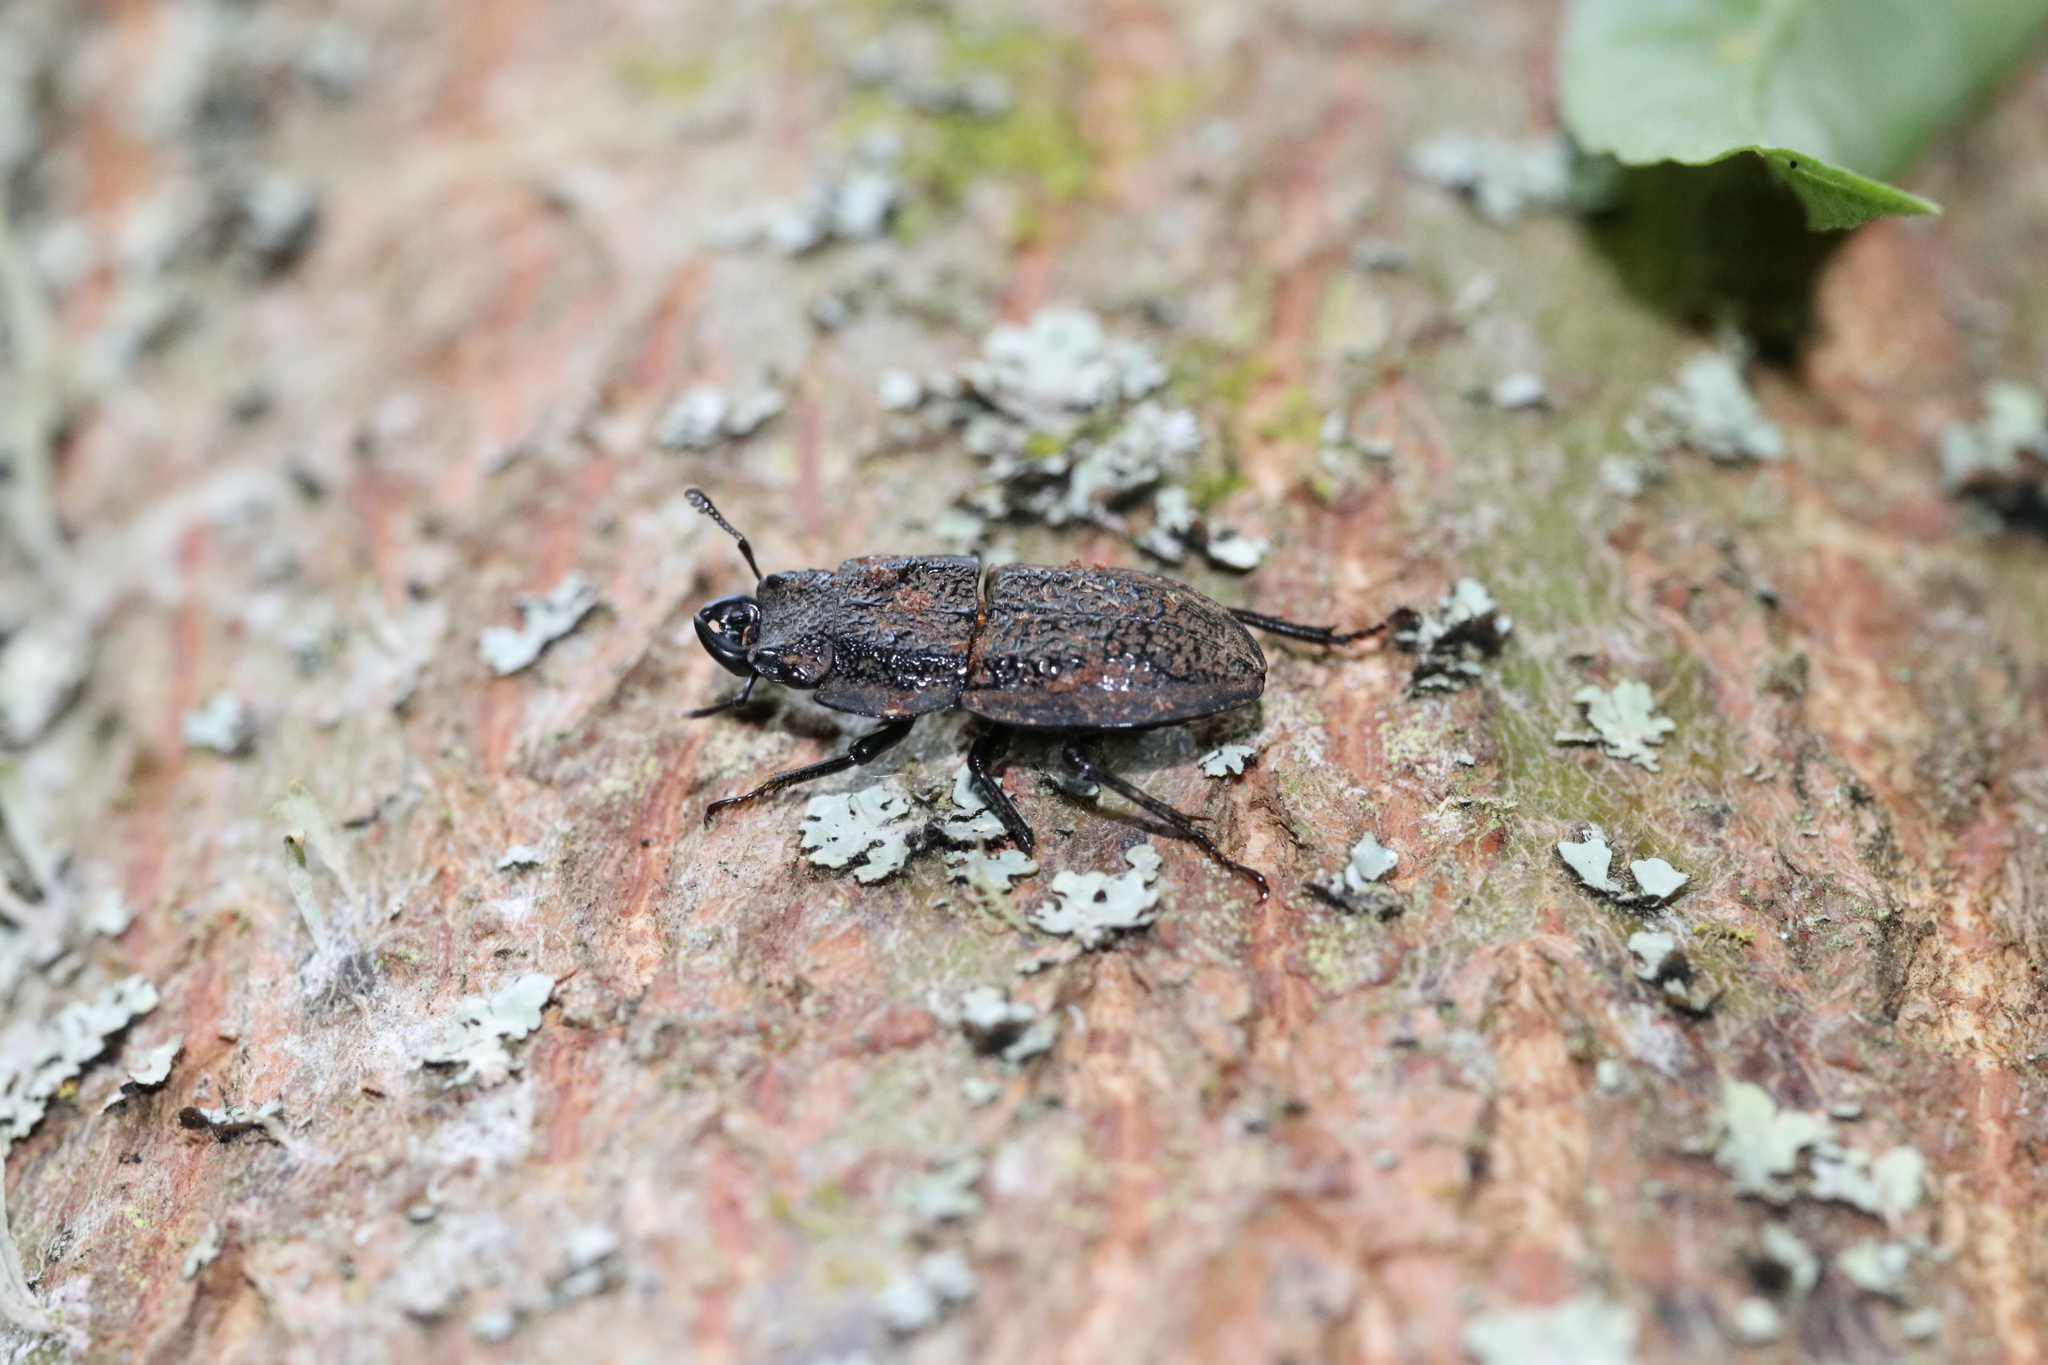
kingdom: Animalia
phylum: Arthropoda
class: Insecta
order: Coleoptera
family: Lucanidae
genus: Erichius
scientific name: Erichius caelatus
